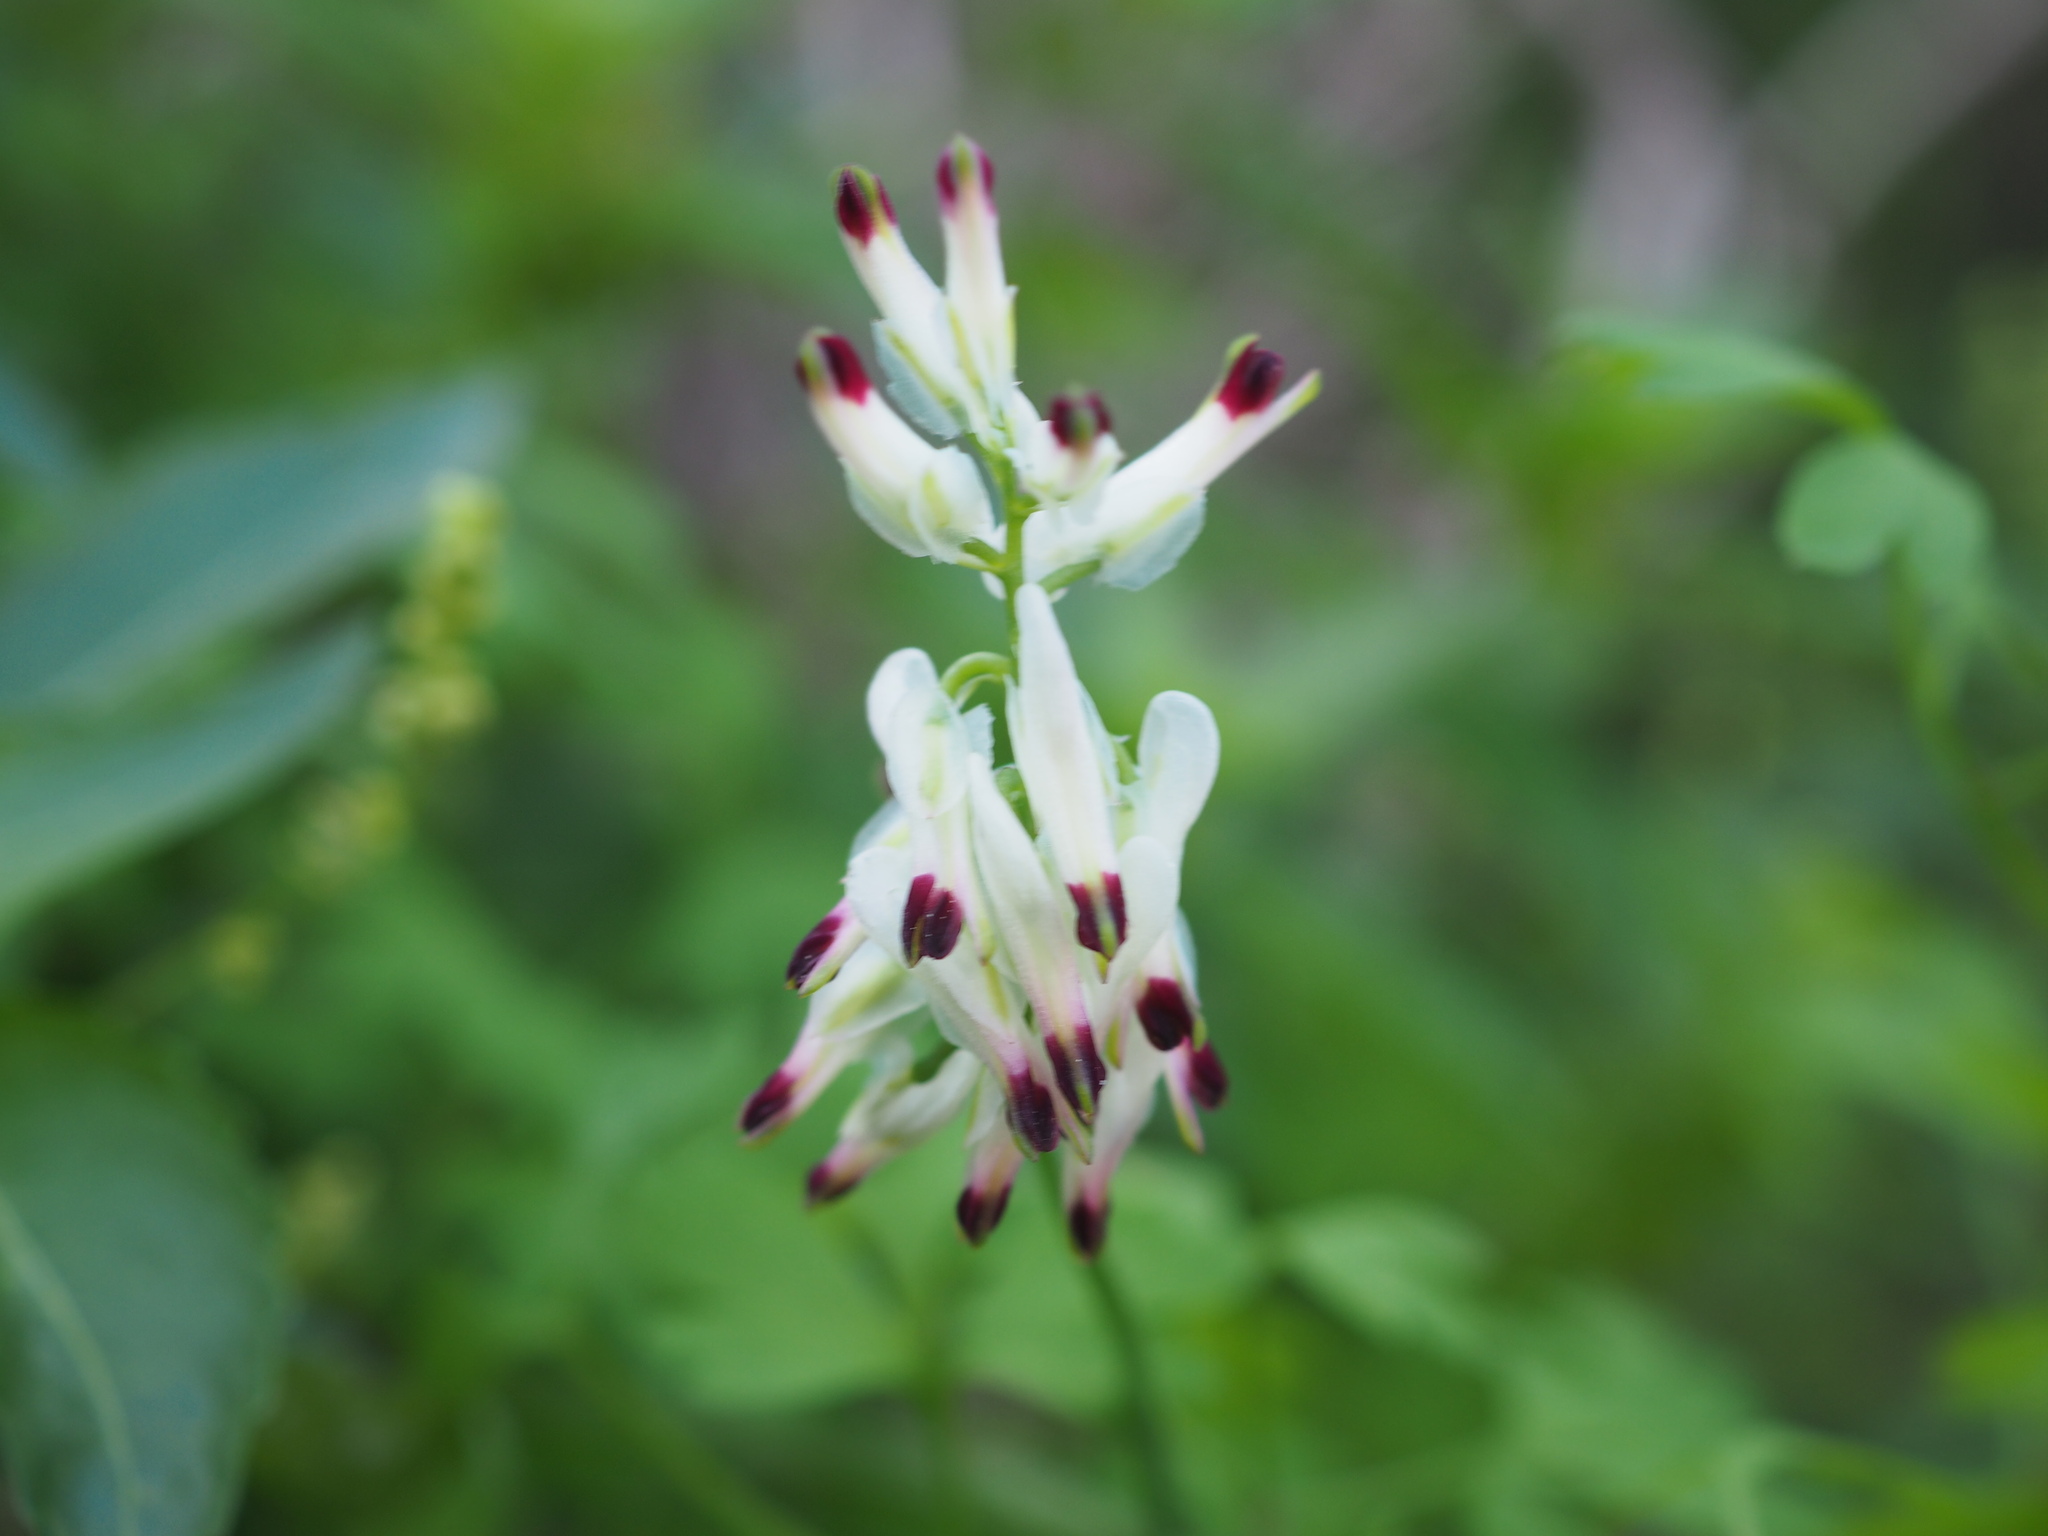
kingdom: Plantae
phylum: Tracheophyta
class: Magnoliopsida
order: Ranunculales
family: Papaveraceae
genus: Fumaria
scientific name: Fumaria capreolata
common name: White ramping-fumitory
